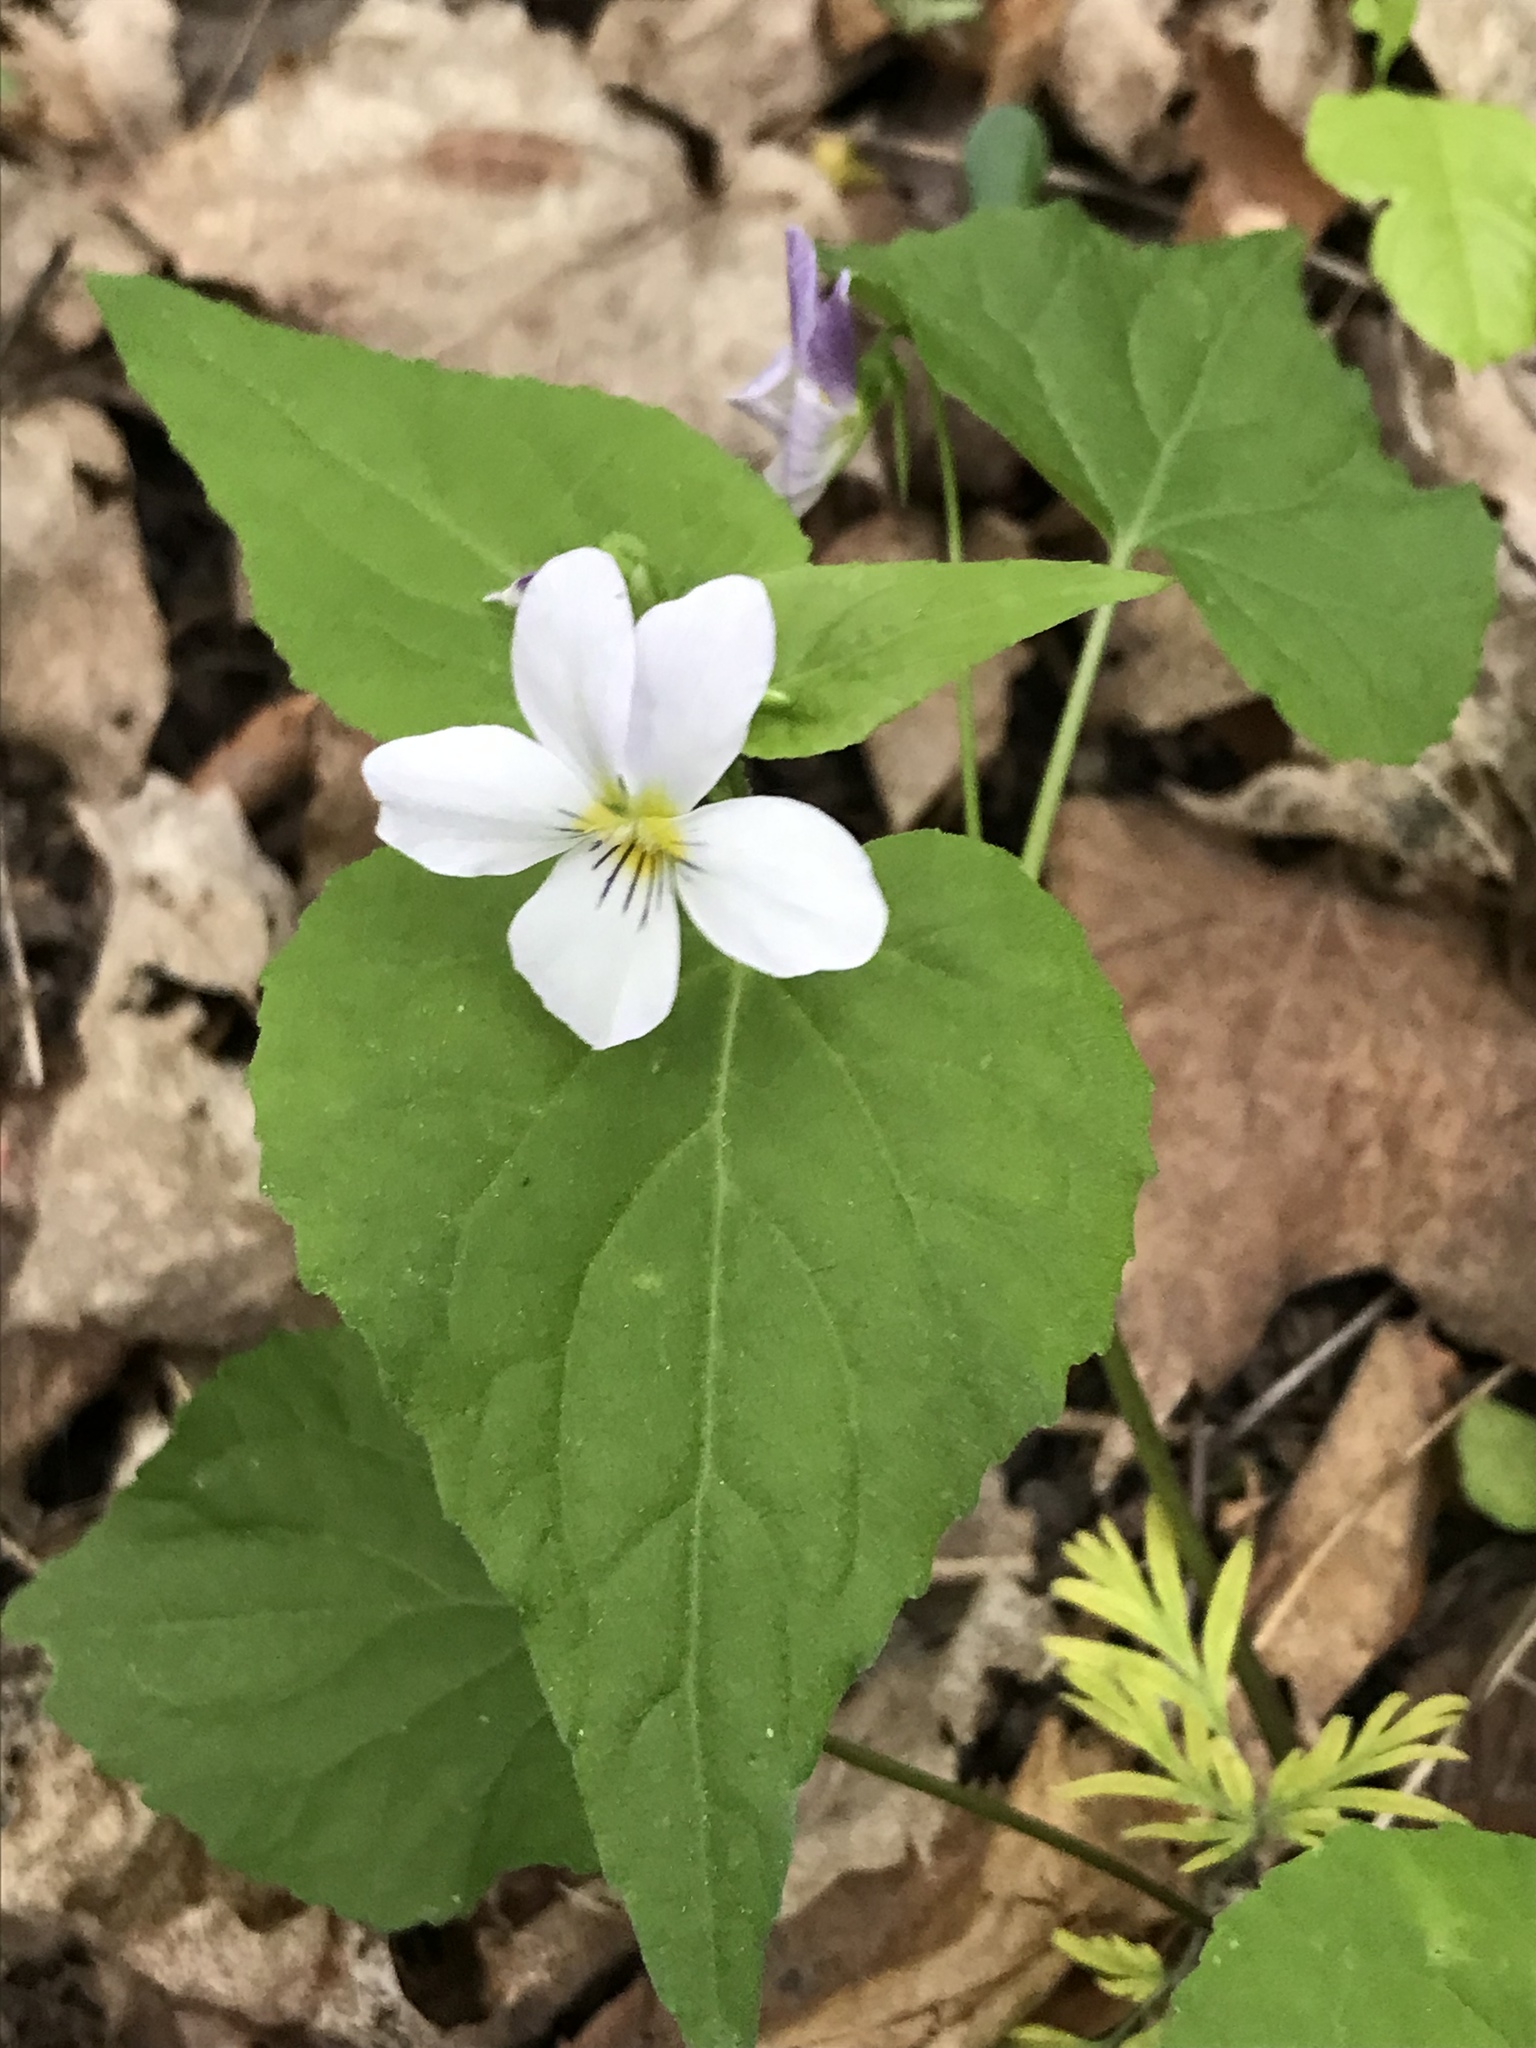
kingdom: Plantae
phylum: Tracheophyta
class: Magnoliopsida
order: Malpighiales
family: Violaceae
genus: Viola
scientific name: Viola canadensis
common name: Canada violet
